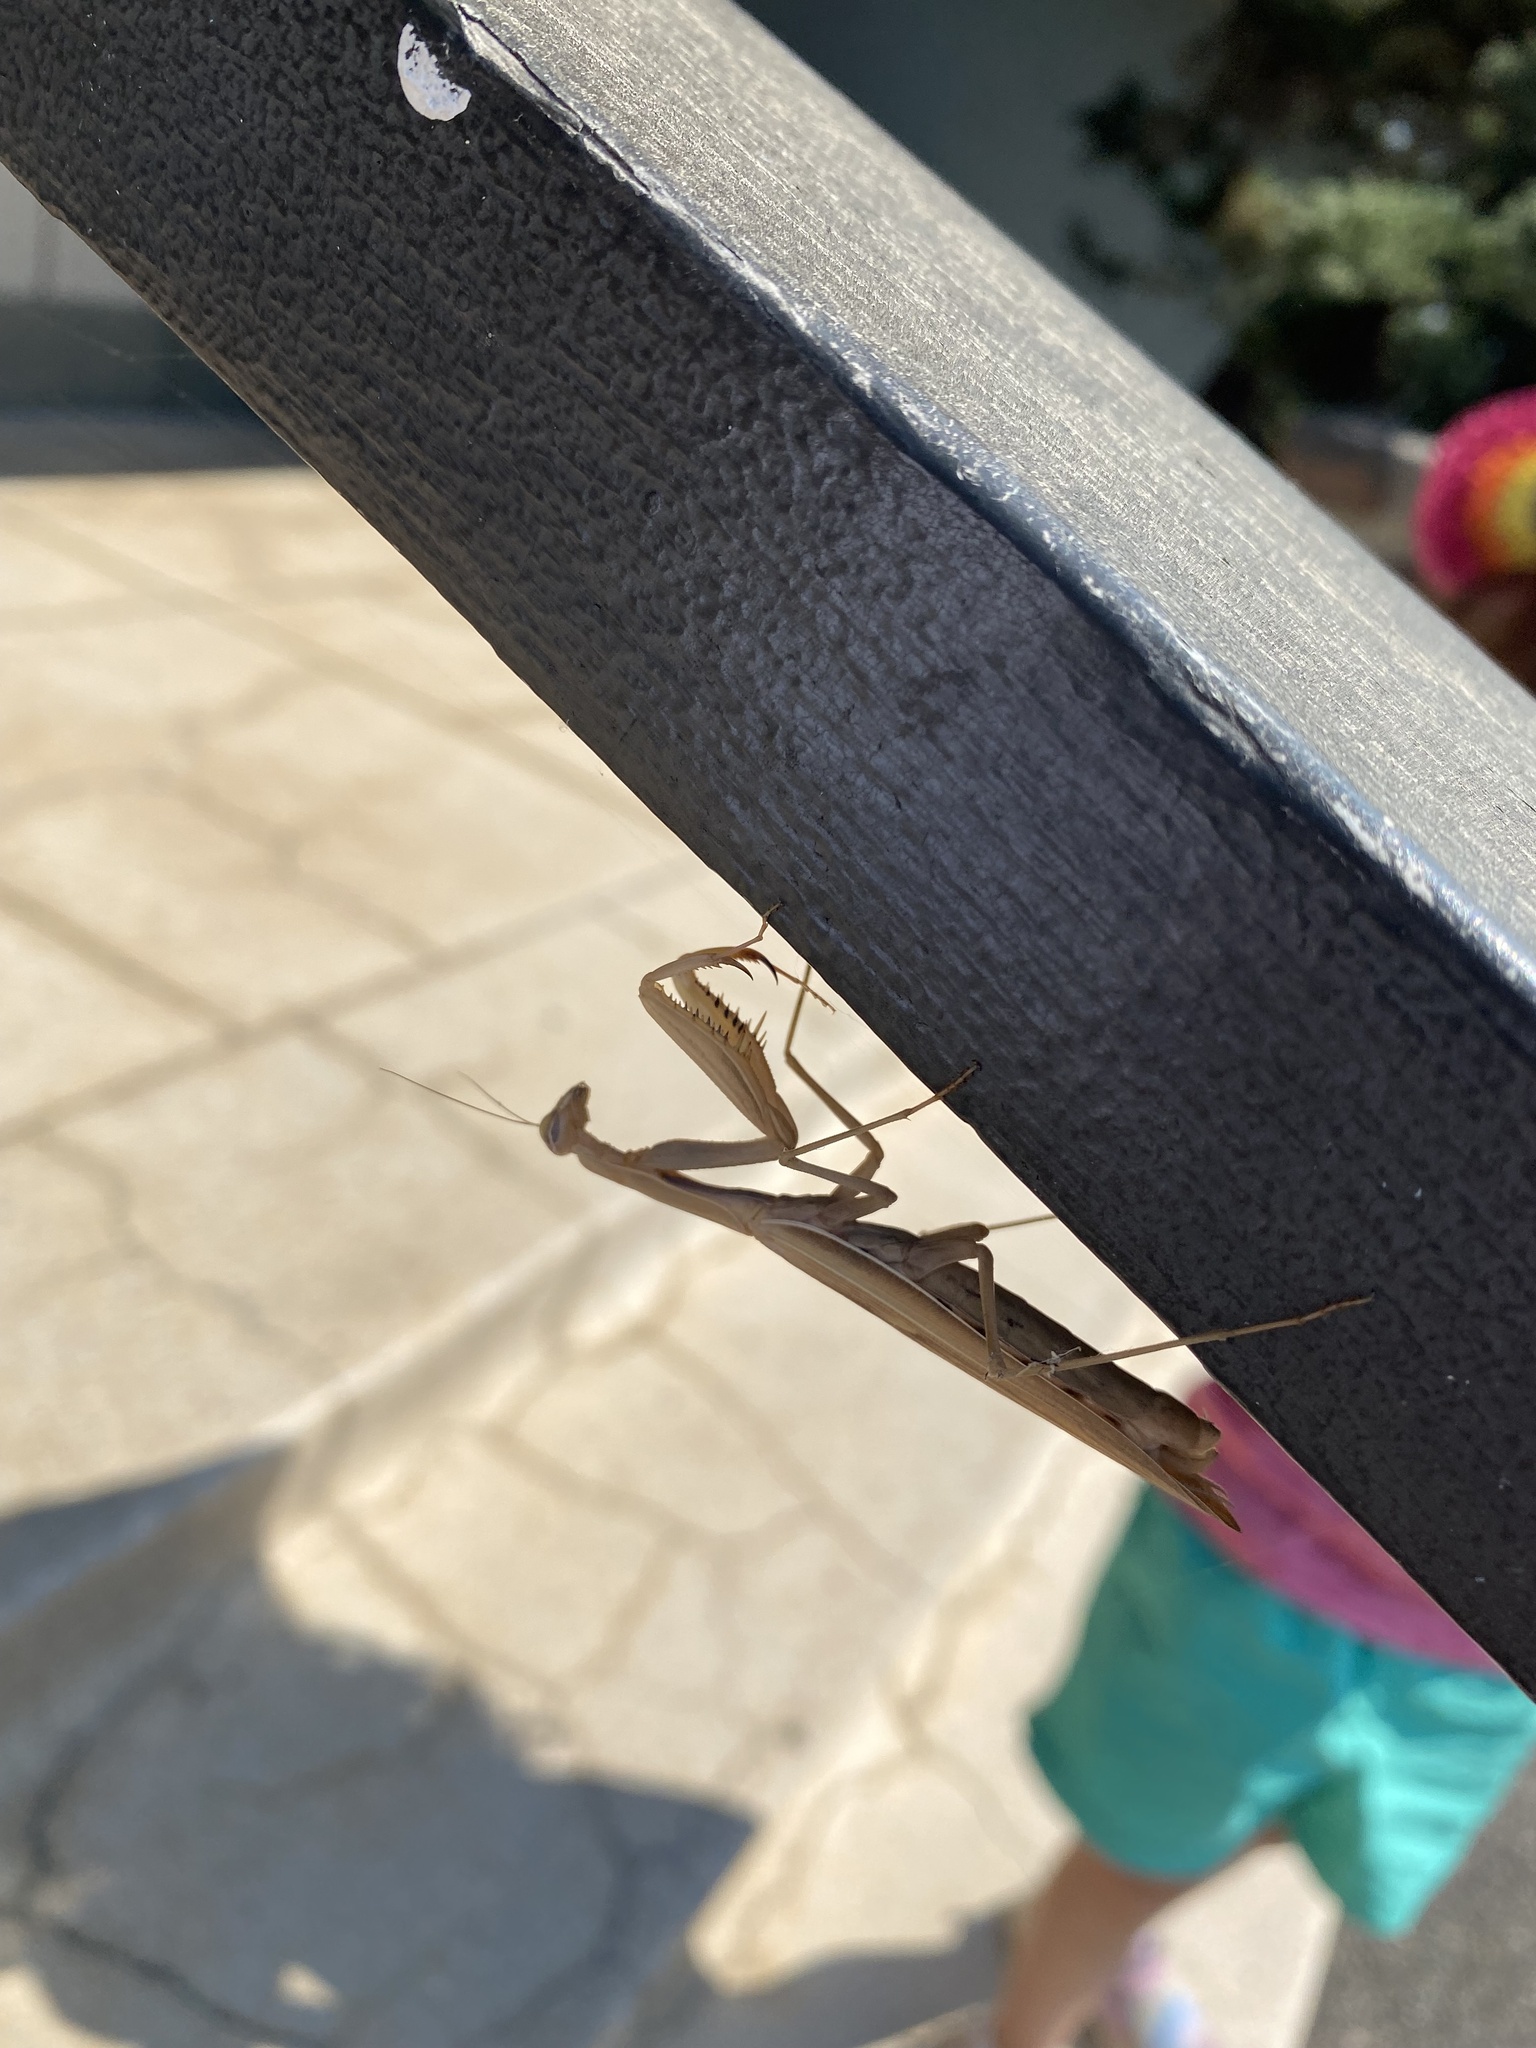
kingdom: Animalia
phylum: Arthropoda
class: Insecta
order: Mantodea
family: Mantidae
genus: Mantis
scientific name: Mantis religiosa
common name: Praying mantis
